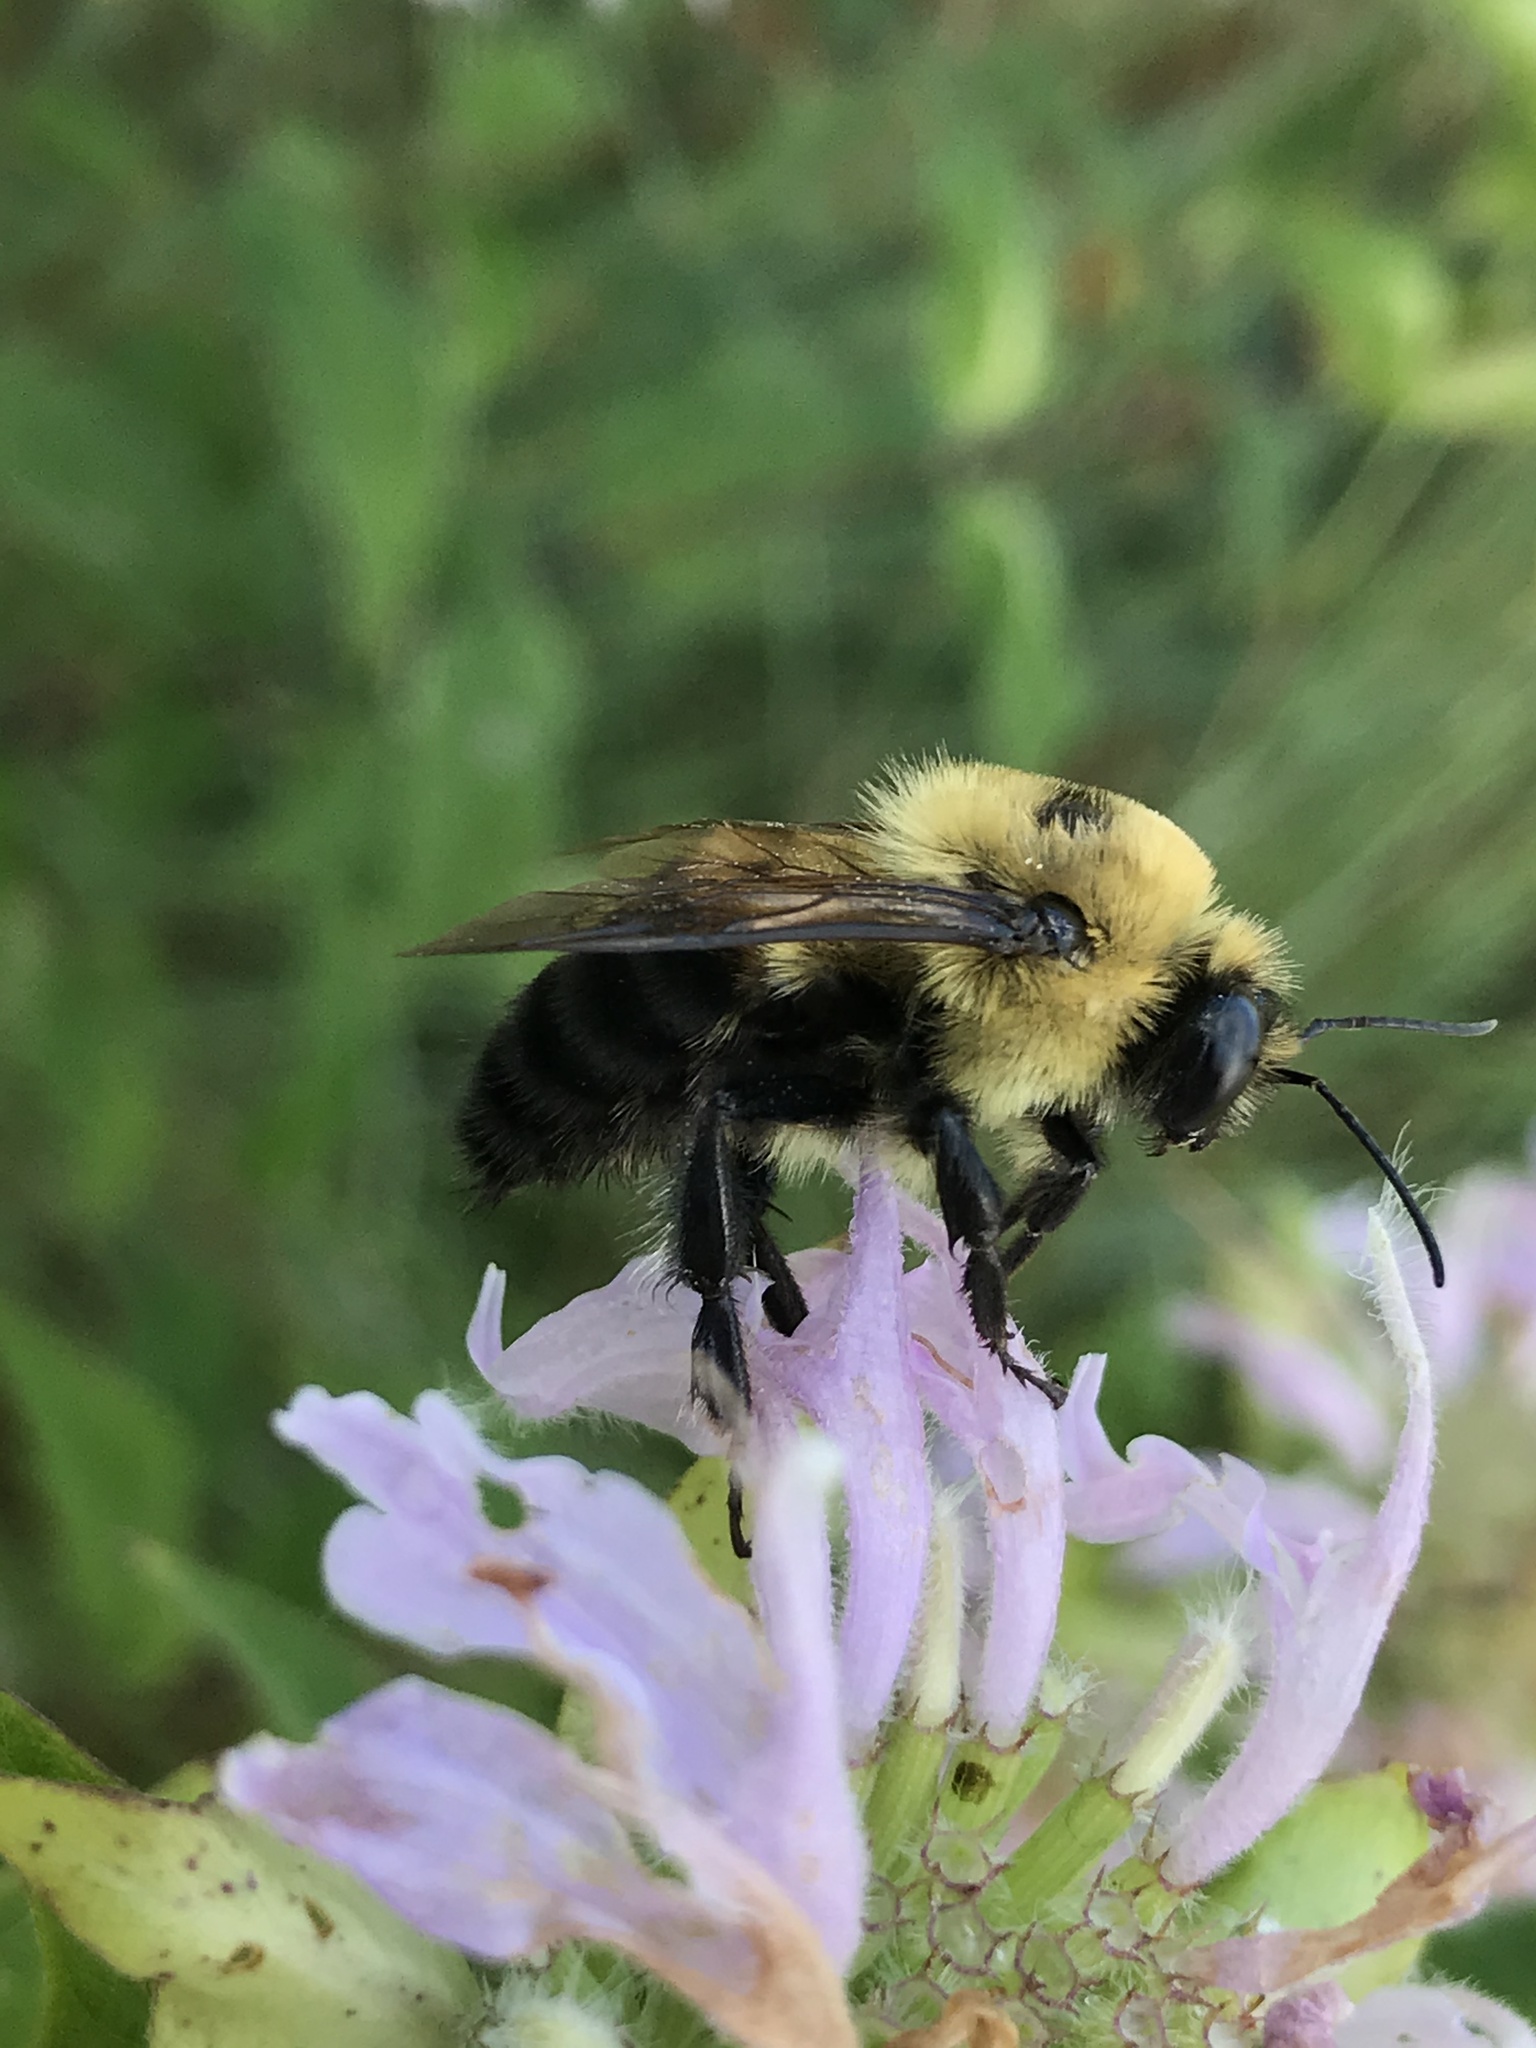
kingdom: Animalia
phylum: Arthropoda
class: Insecta
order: Hymenoptera
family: Apidae
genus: Bombus
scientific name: Bombus griseocollis
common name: Brown-belted bumble bee
